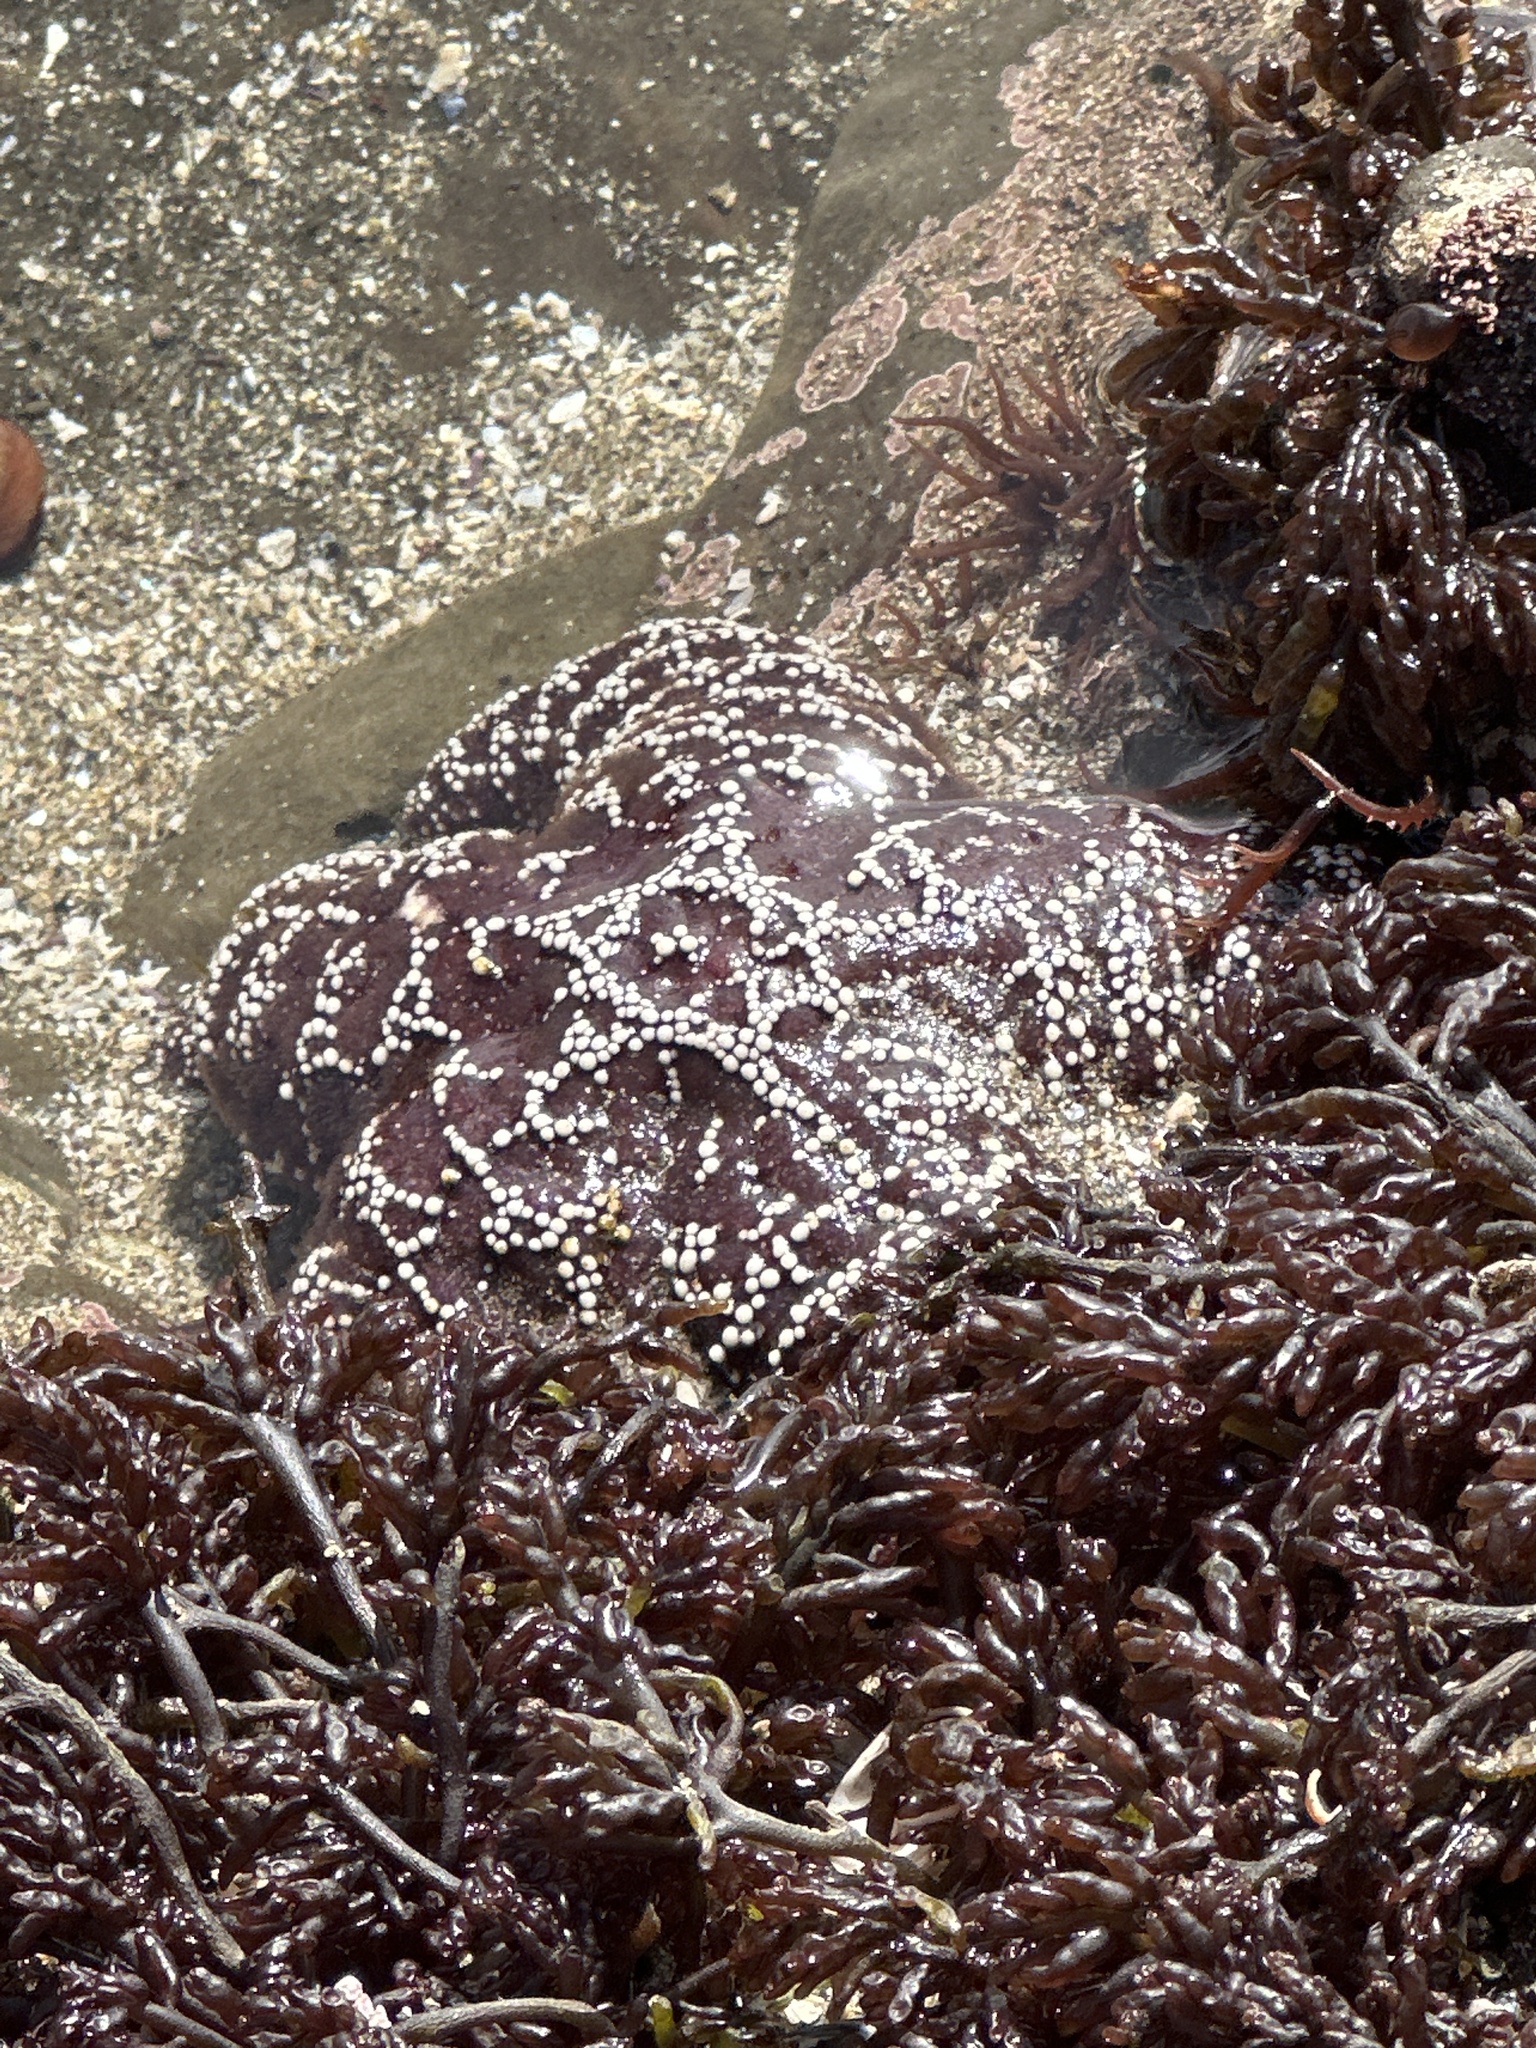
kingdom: Animalia
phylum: Echinodermata
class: Asteroidea
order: Forcipulatida
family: Asteriidae
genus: Pisaster
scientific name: Pisaster ochraceus
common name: Ochre stars
